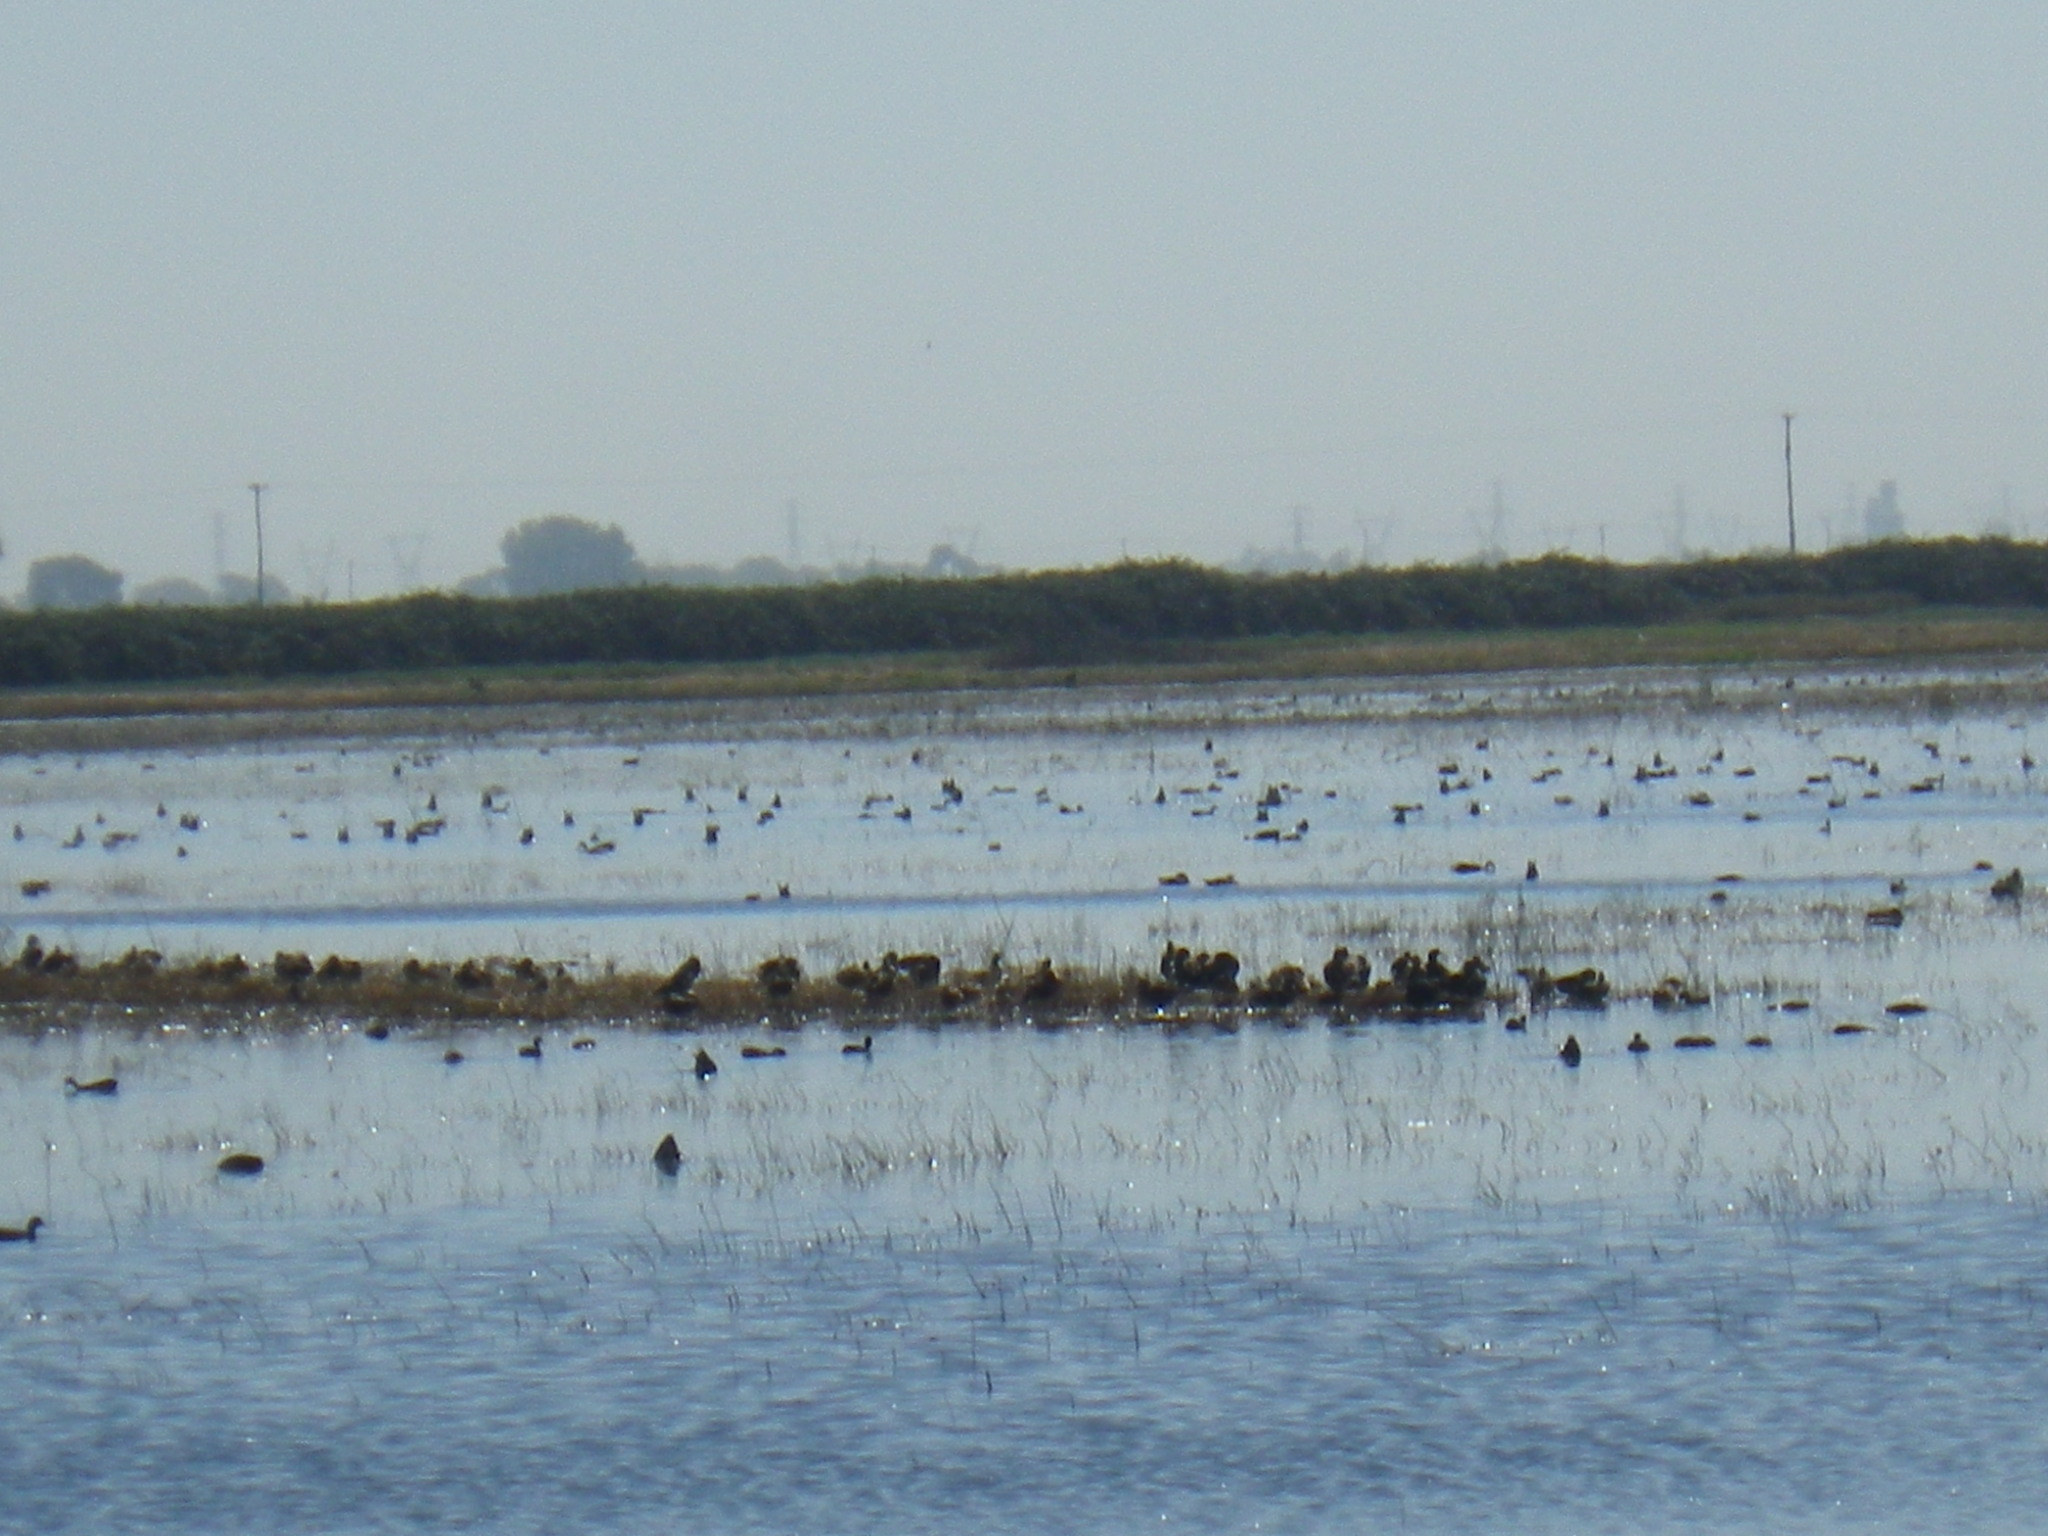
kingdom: Animalia
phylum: Chordata
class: Aves
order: Gruiformes
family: Rallidae
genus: Fulica
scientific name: Fulica americana
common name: American coot
